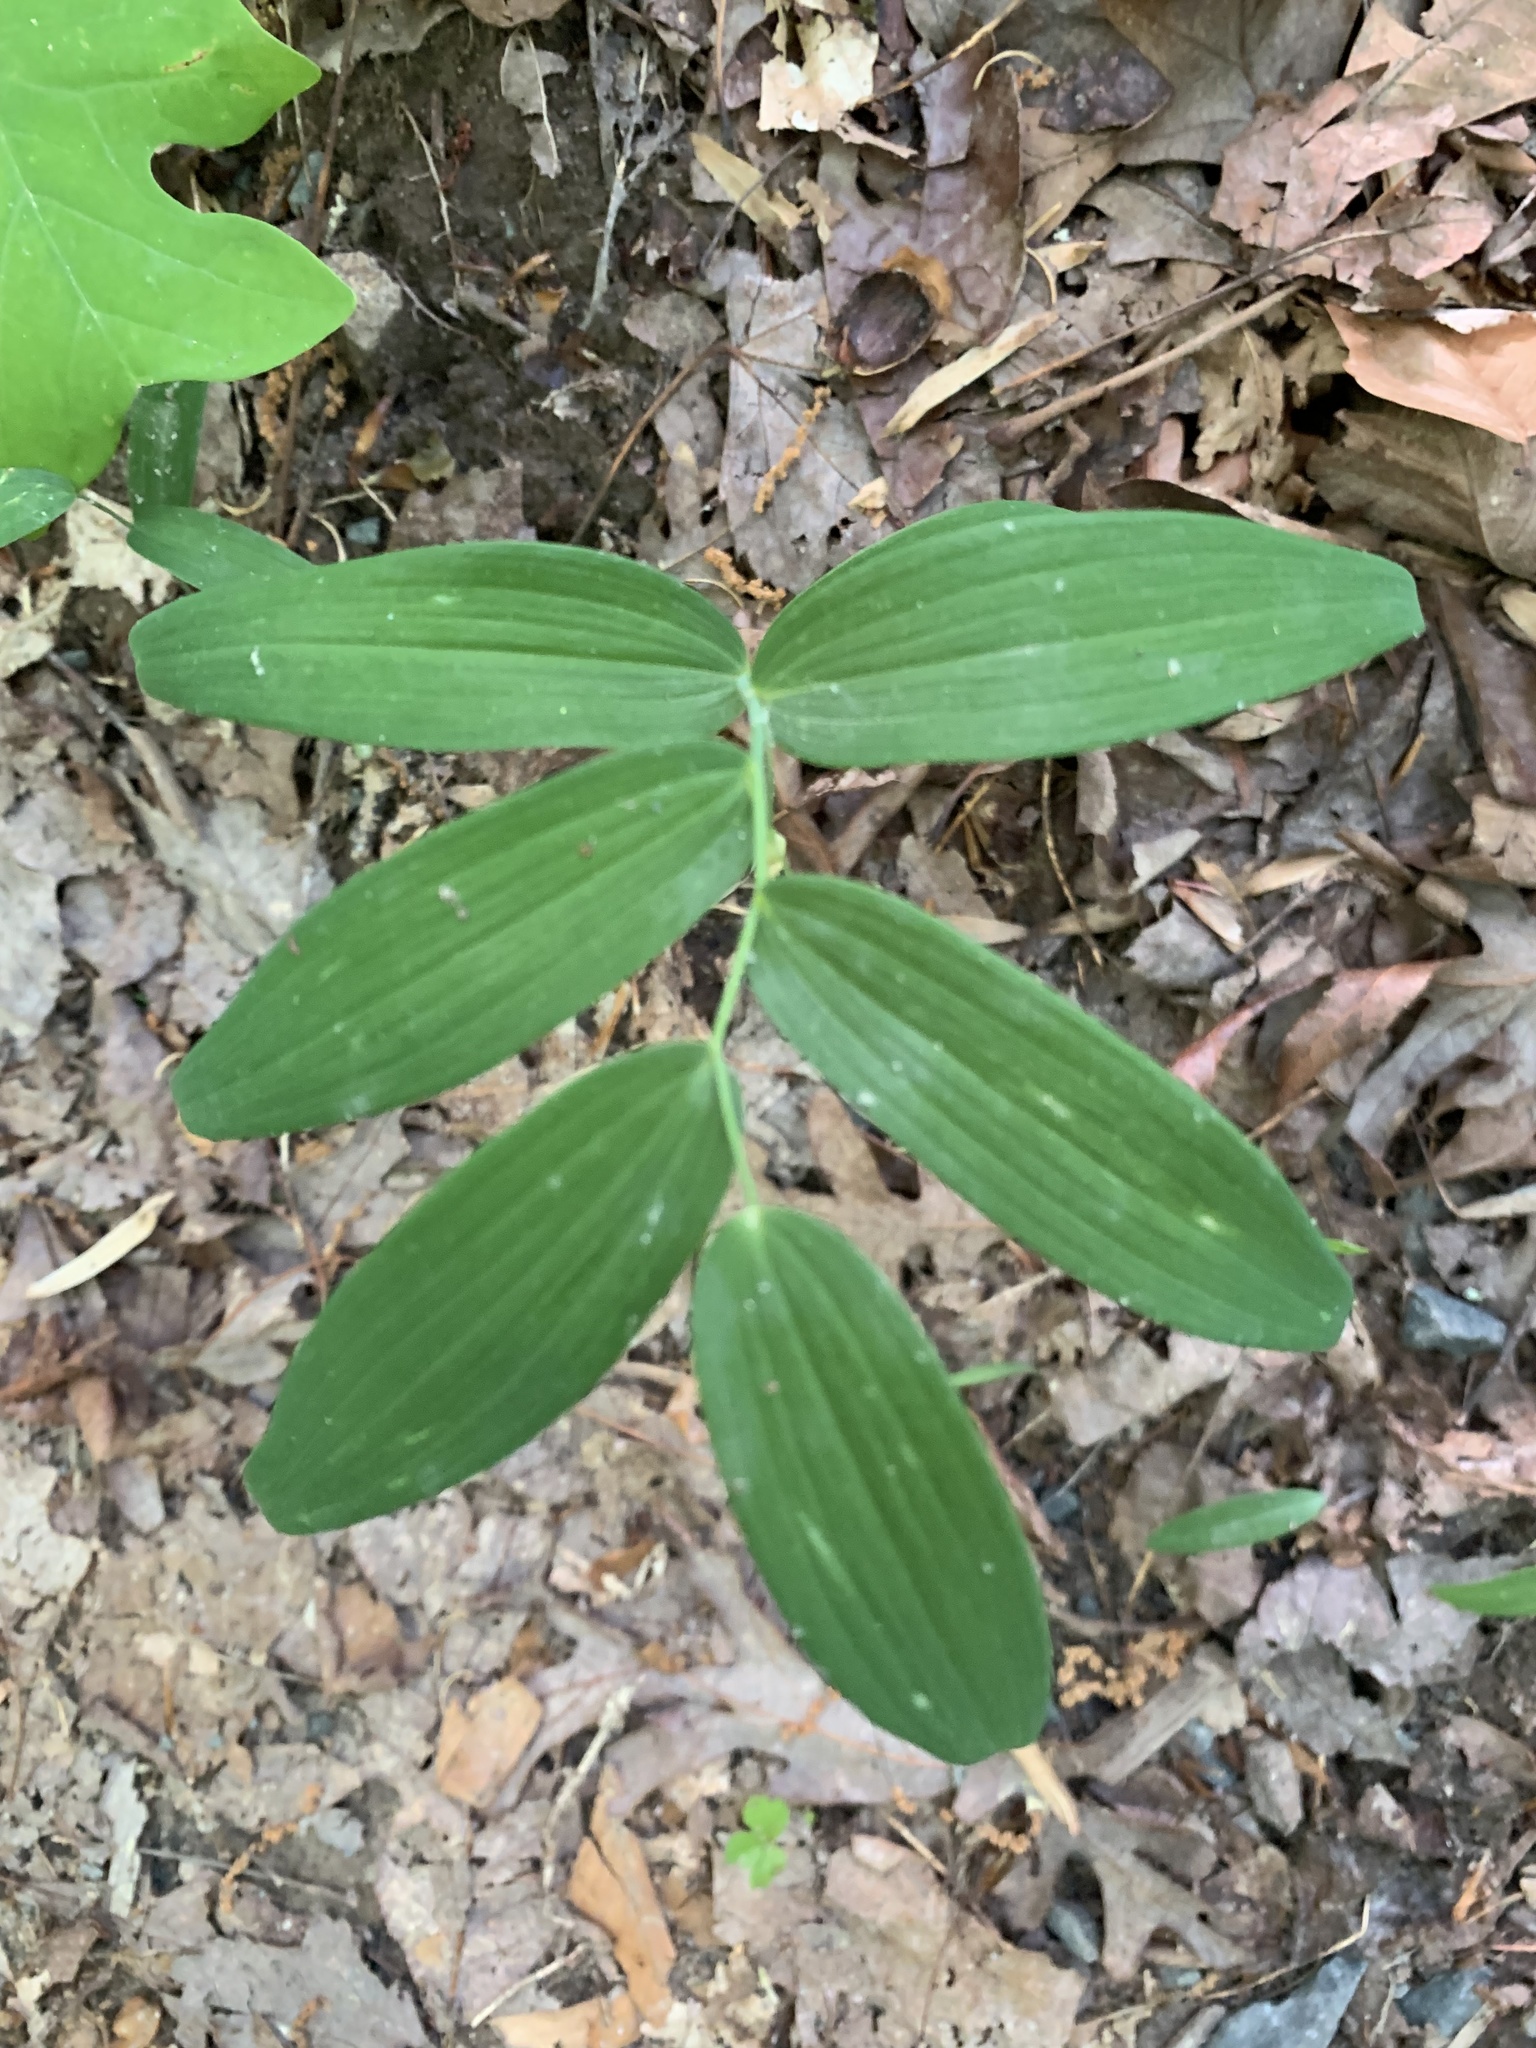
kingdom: Plantae
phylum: Tracheophyta
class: Liliopsida
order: Asparagales
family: Asparagaceae
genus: Polygonatum
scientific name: Polygonatum biflorum
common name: American solomon's-seal
